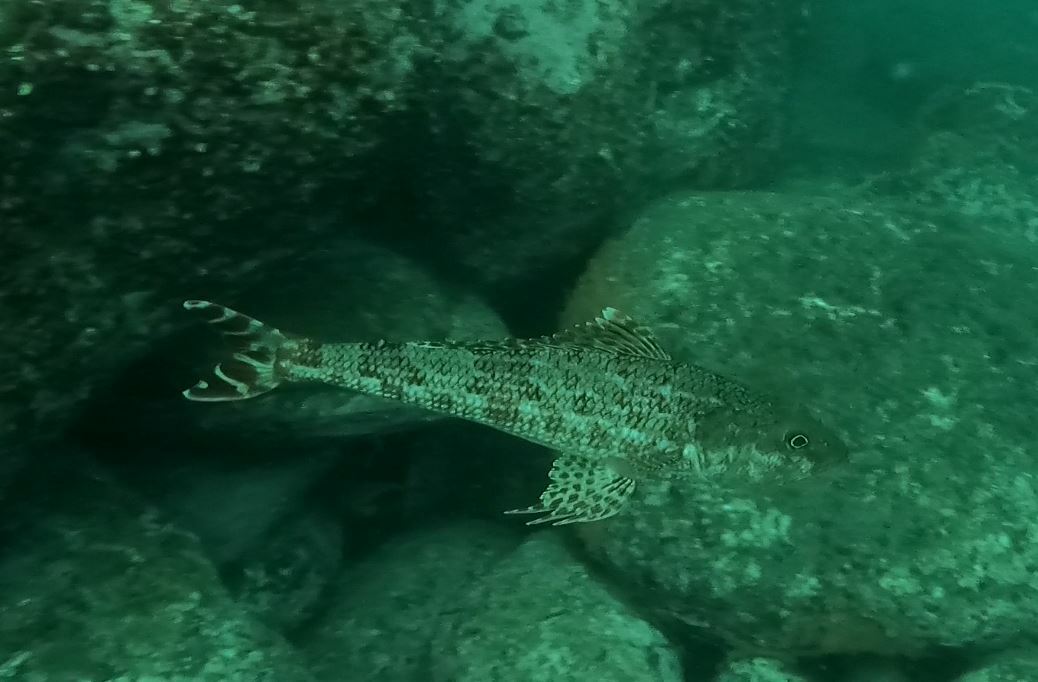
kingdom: Animalia
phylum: Chordata
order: Aulopiformes
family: Aulopidae
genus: Latropiscis
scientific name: Latropiscis purpurissatus
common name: Sergeant baker
